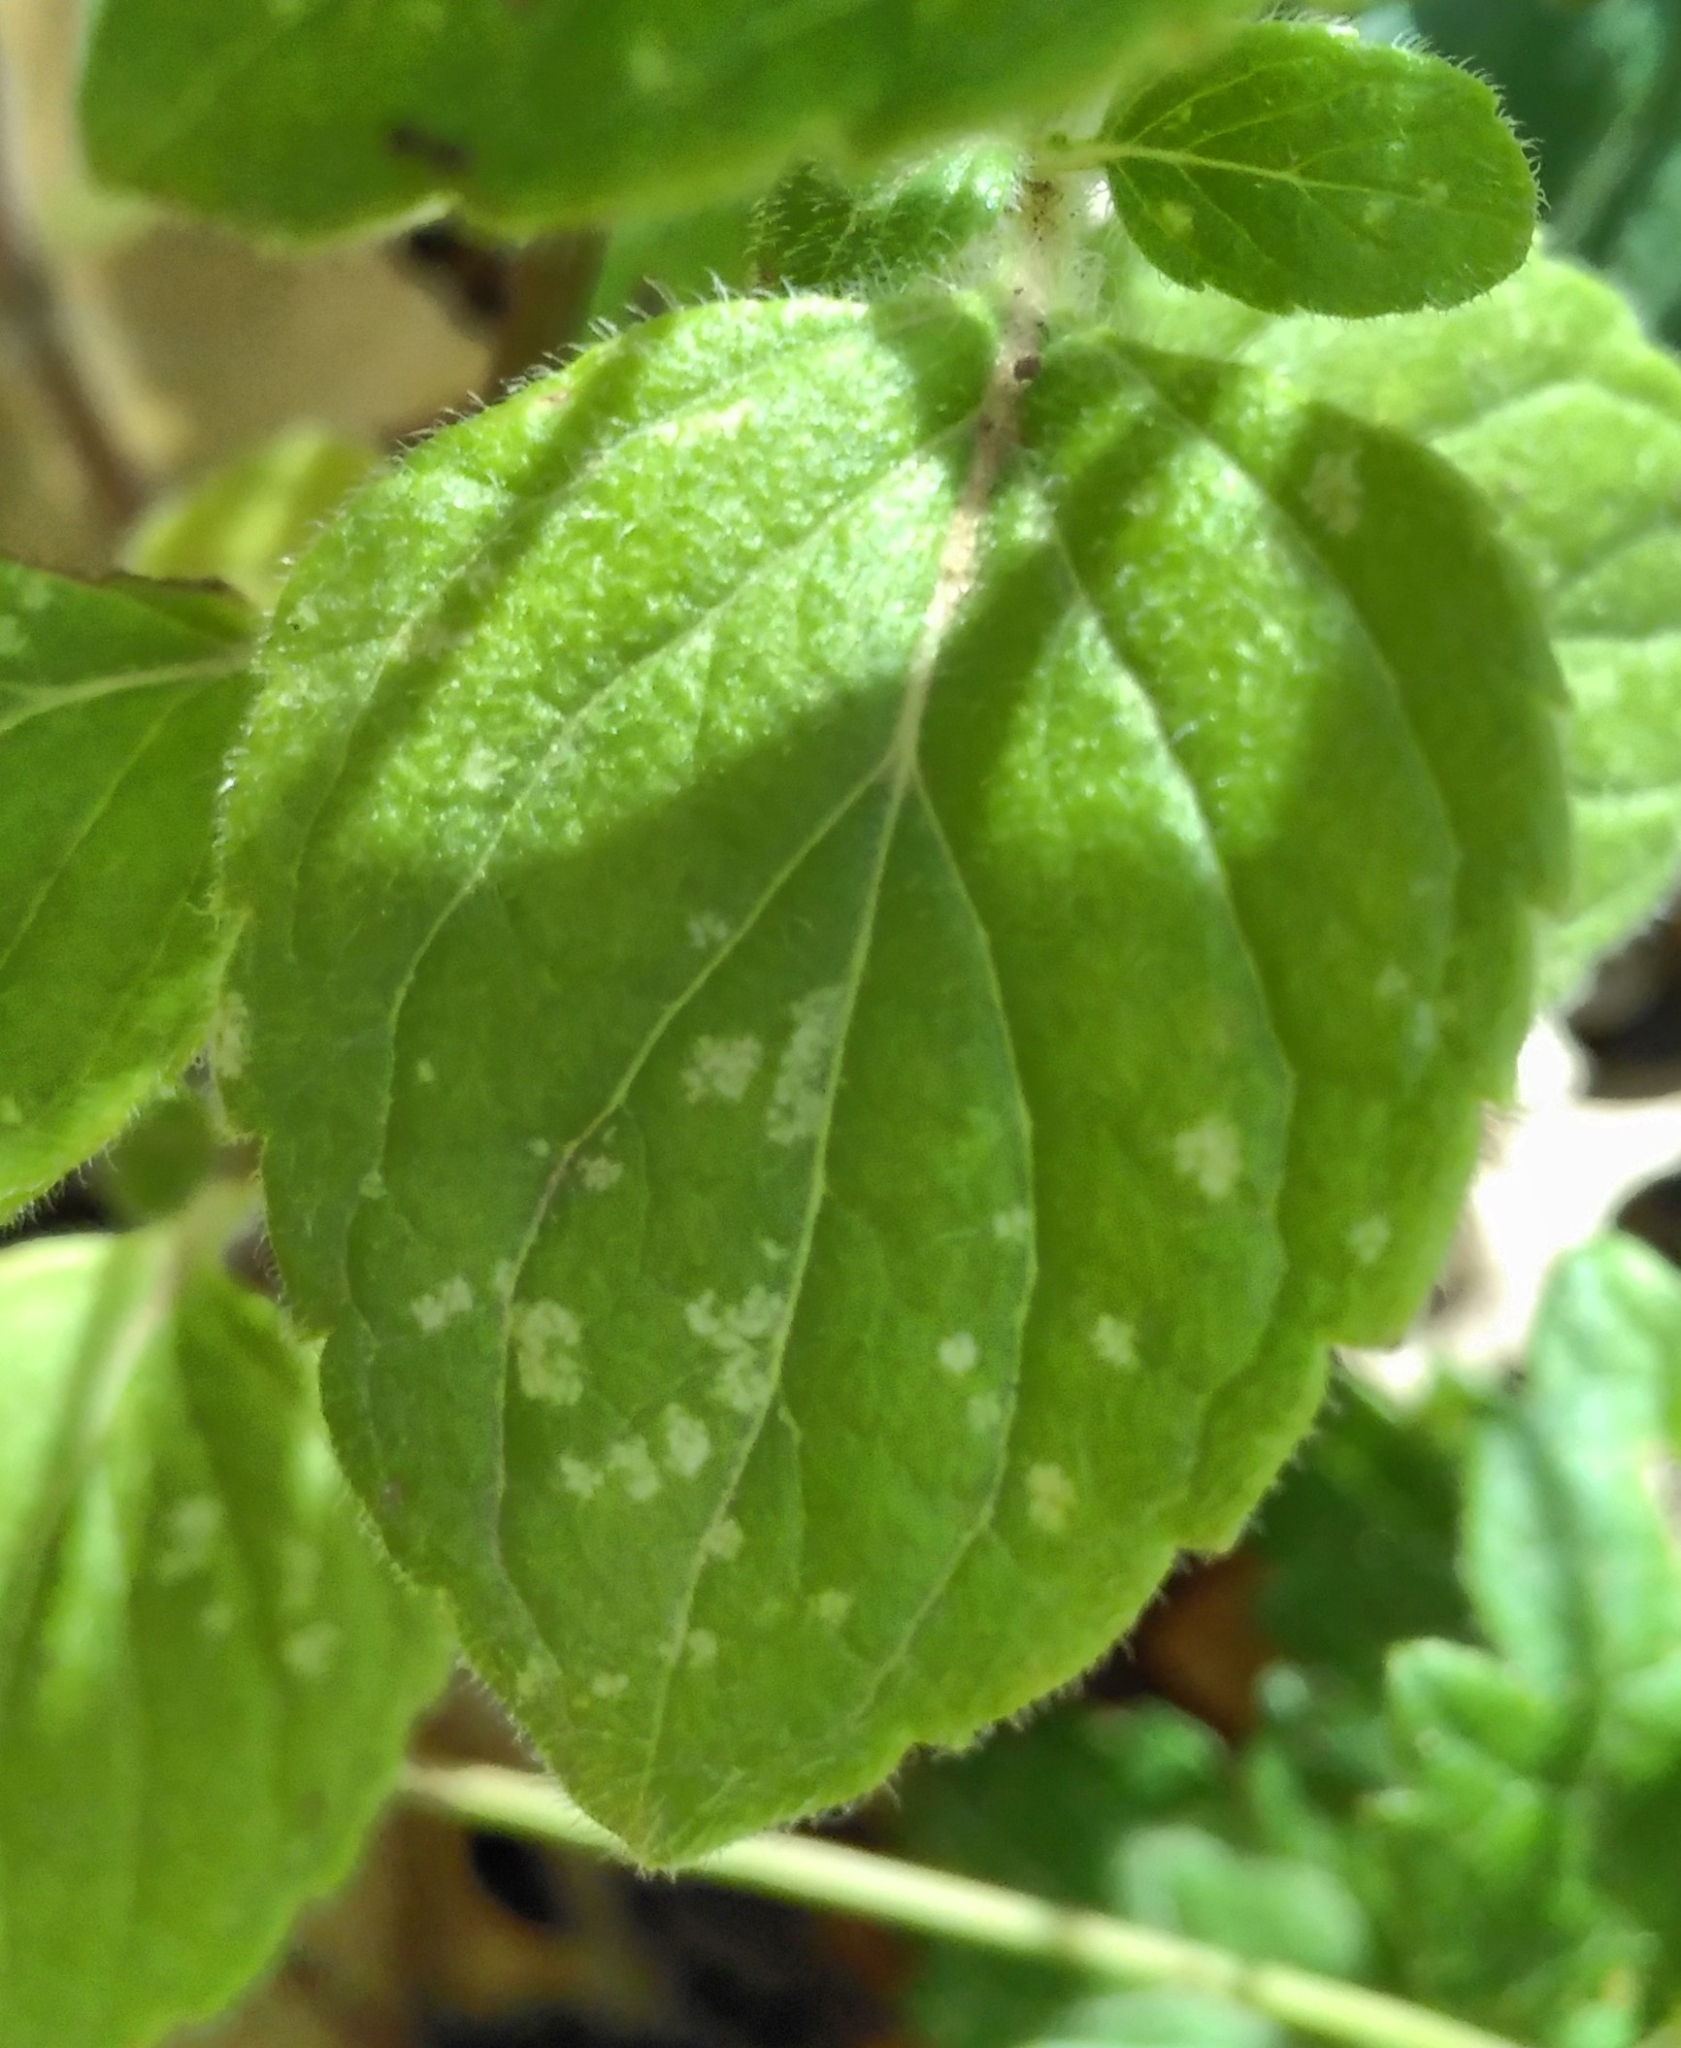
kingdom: Plantae
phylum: Tracheophyta
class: Magnoliopsida
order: Lamiales
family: Lamiaceae
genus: Clinopodium
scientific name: Clinopodium menthifolium
